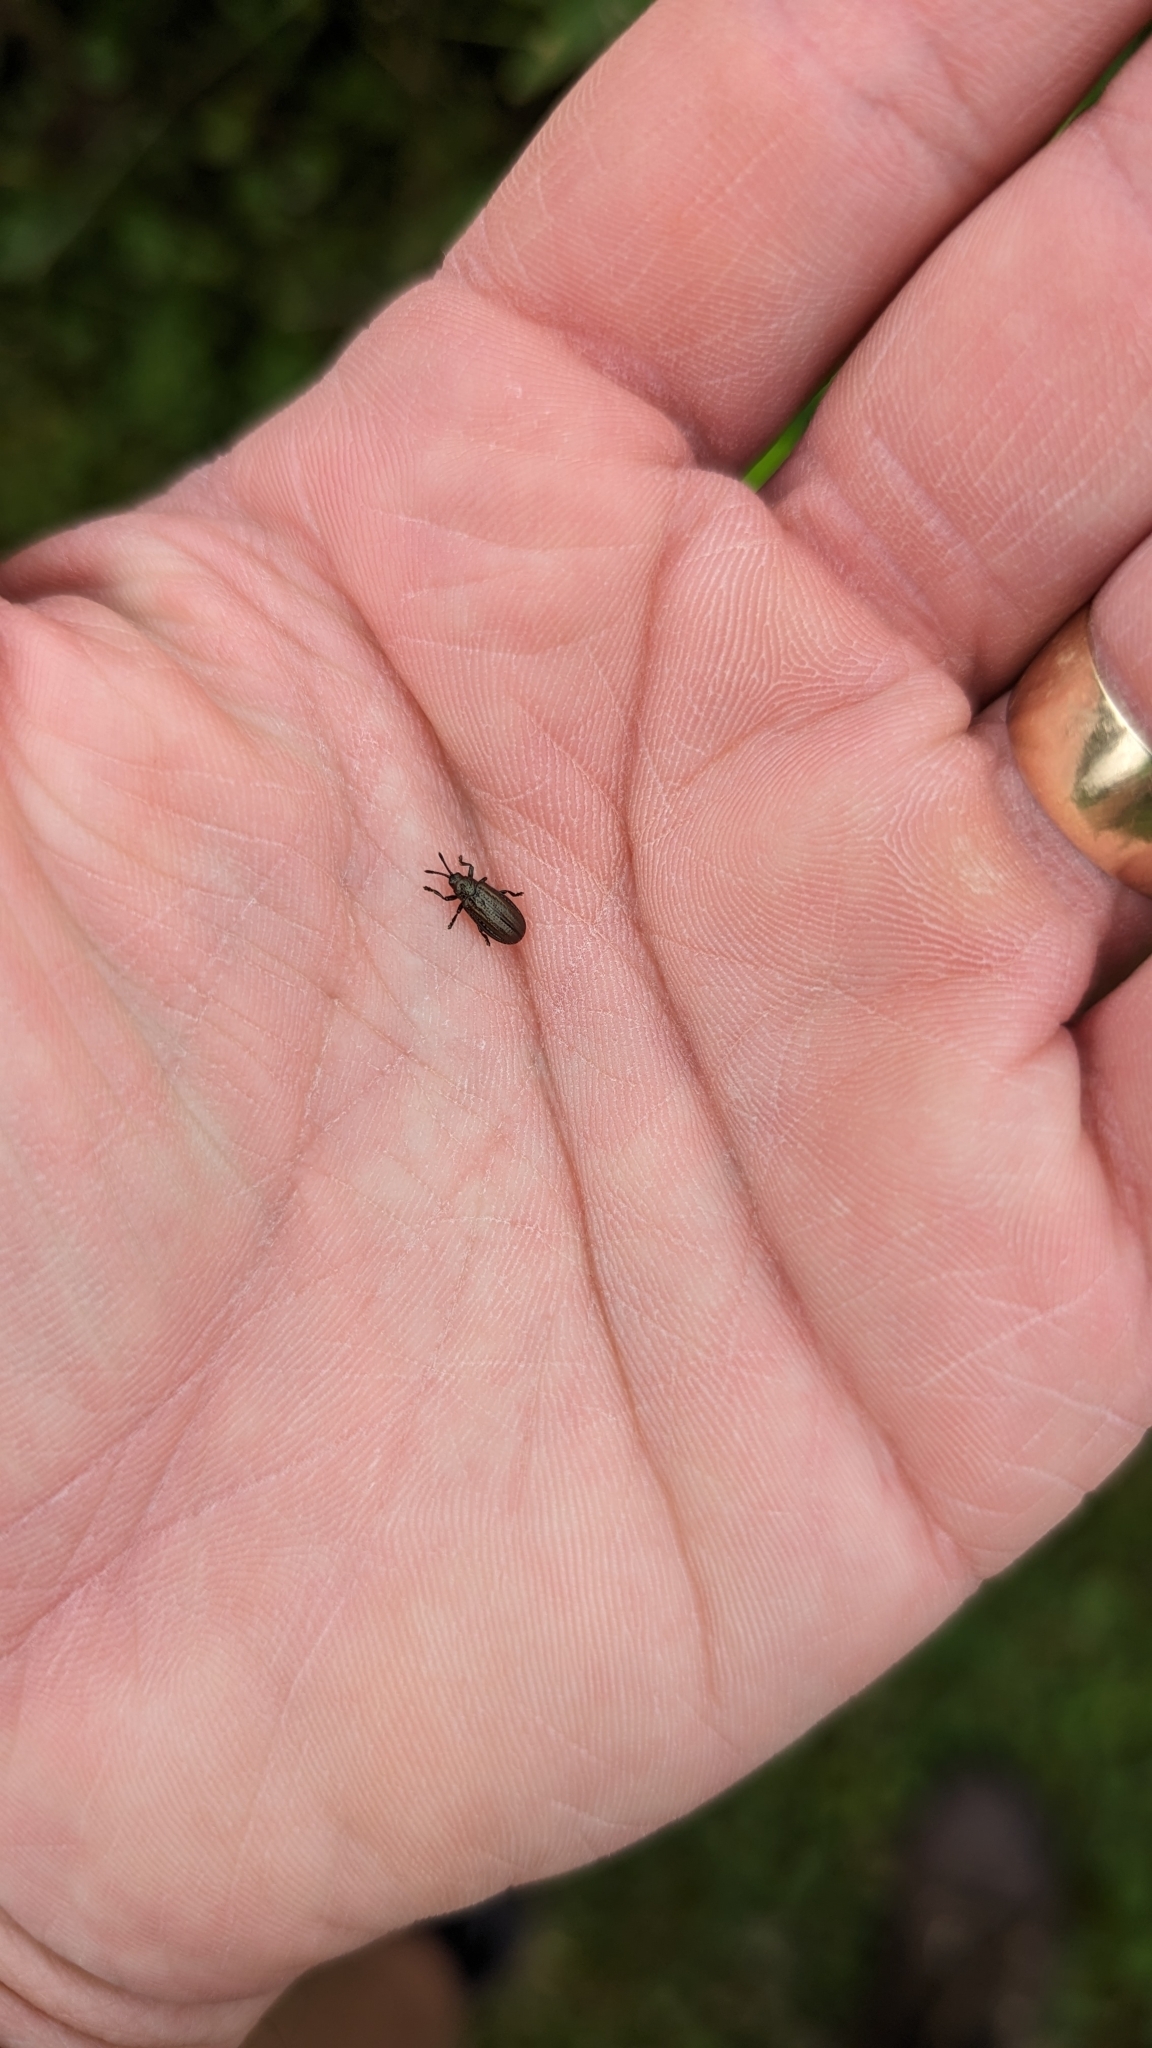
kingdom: Animalia
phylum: Arthropoda
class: Insecta
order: Coleoptera
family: Chrysomelidae
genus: Microrhopala
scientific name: Microrhopala vittata
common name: Goldenrod leaf miner beetle
